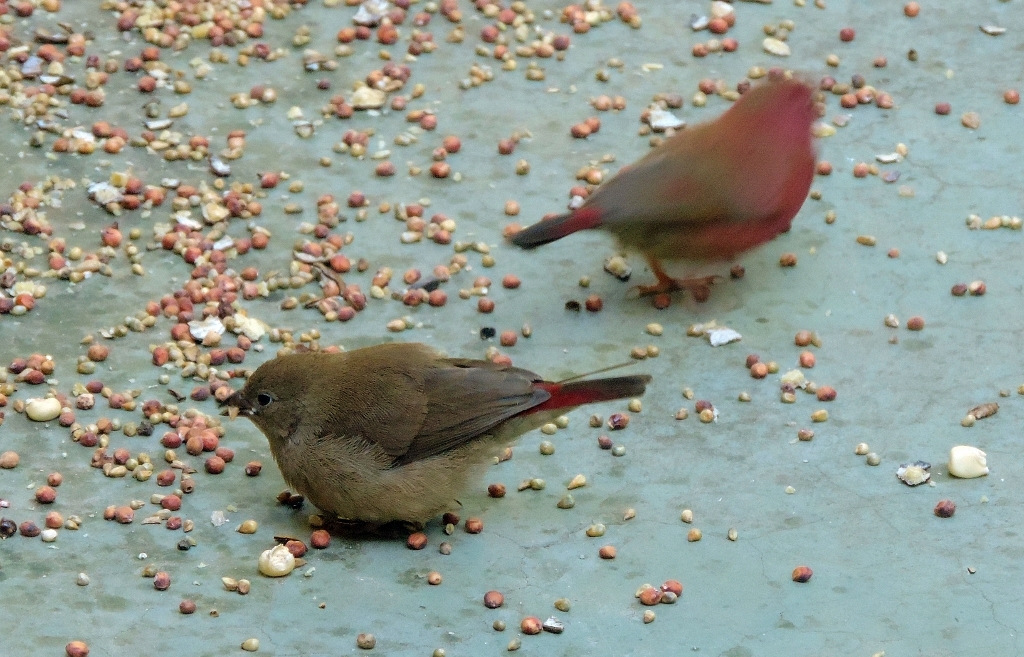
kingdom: Animalia
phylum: Chordata
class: Aves
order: Passeriformes
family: Estrildidae
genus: Lagonosticta
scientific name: Lagonosticta senegala
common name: Red-billed firefinch
